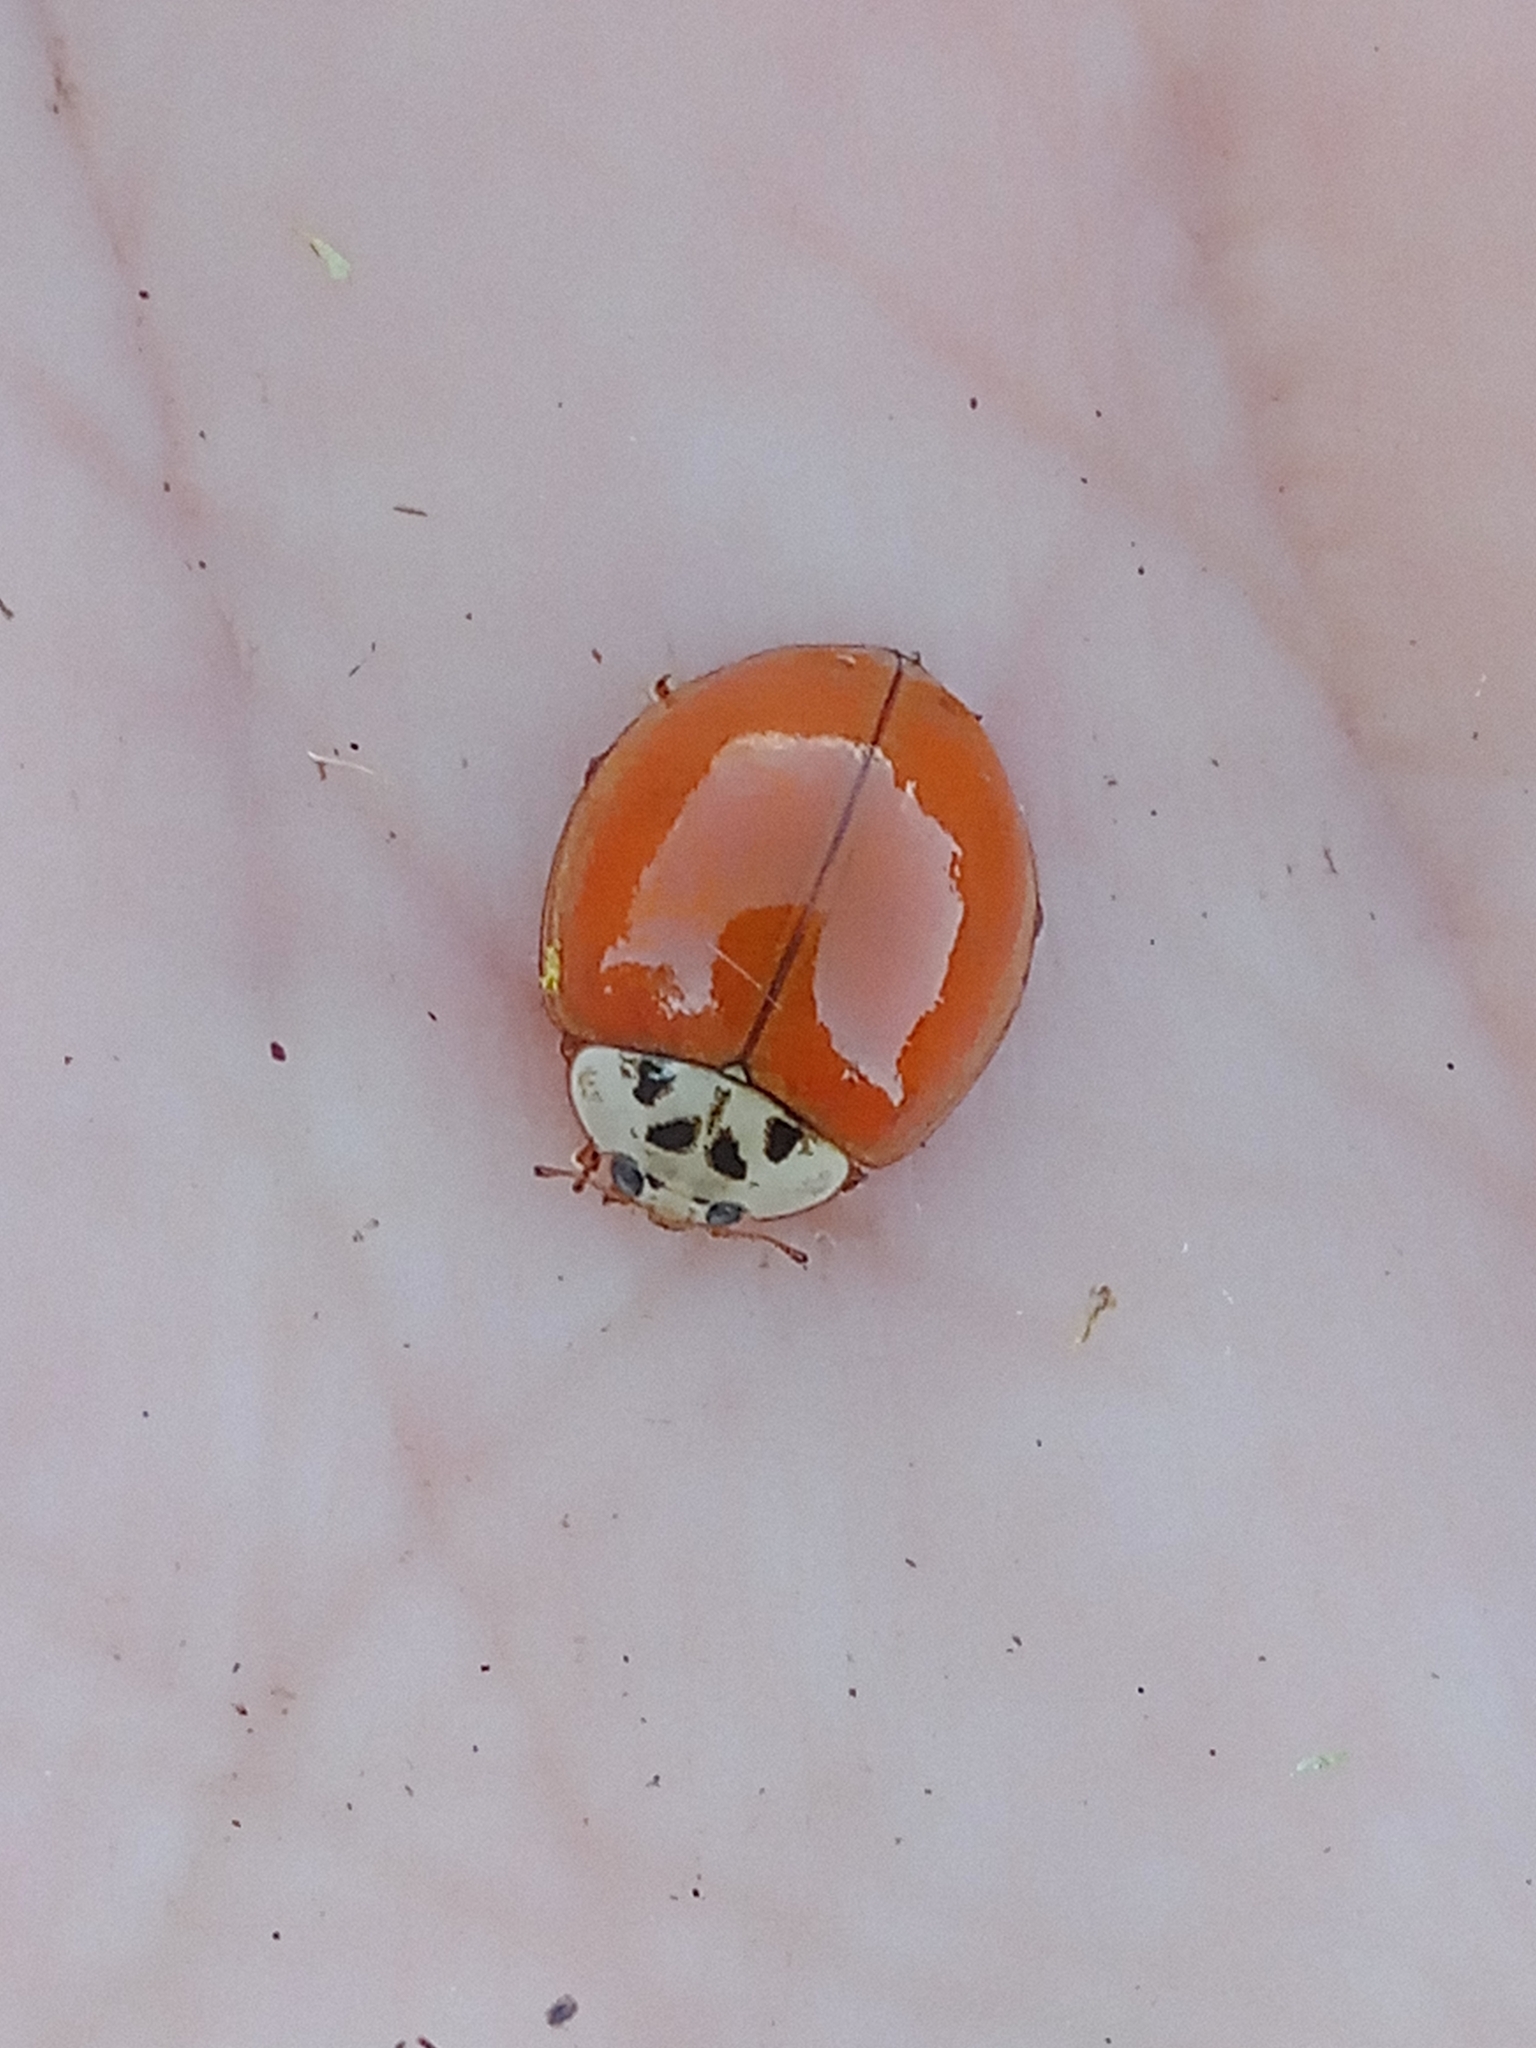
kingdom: Animalia
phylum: Arthropoda
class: Insecta
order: Coleoptera
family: Coccinellidae
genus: Harmonia
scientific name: Harmonia axyridis
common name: Harlequin ladybird
